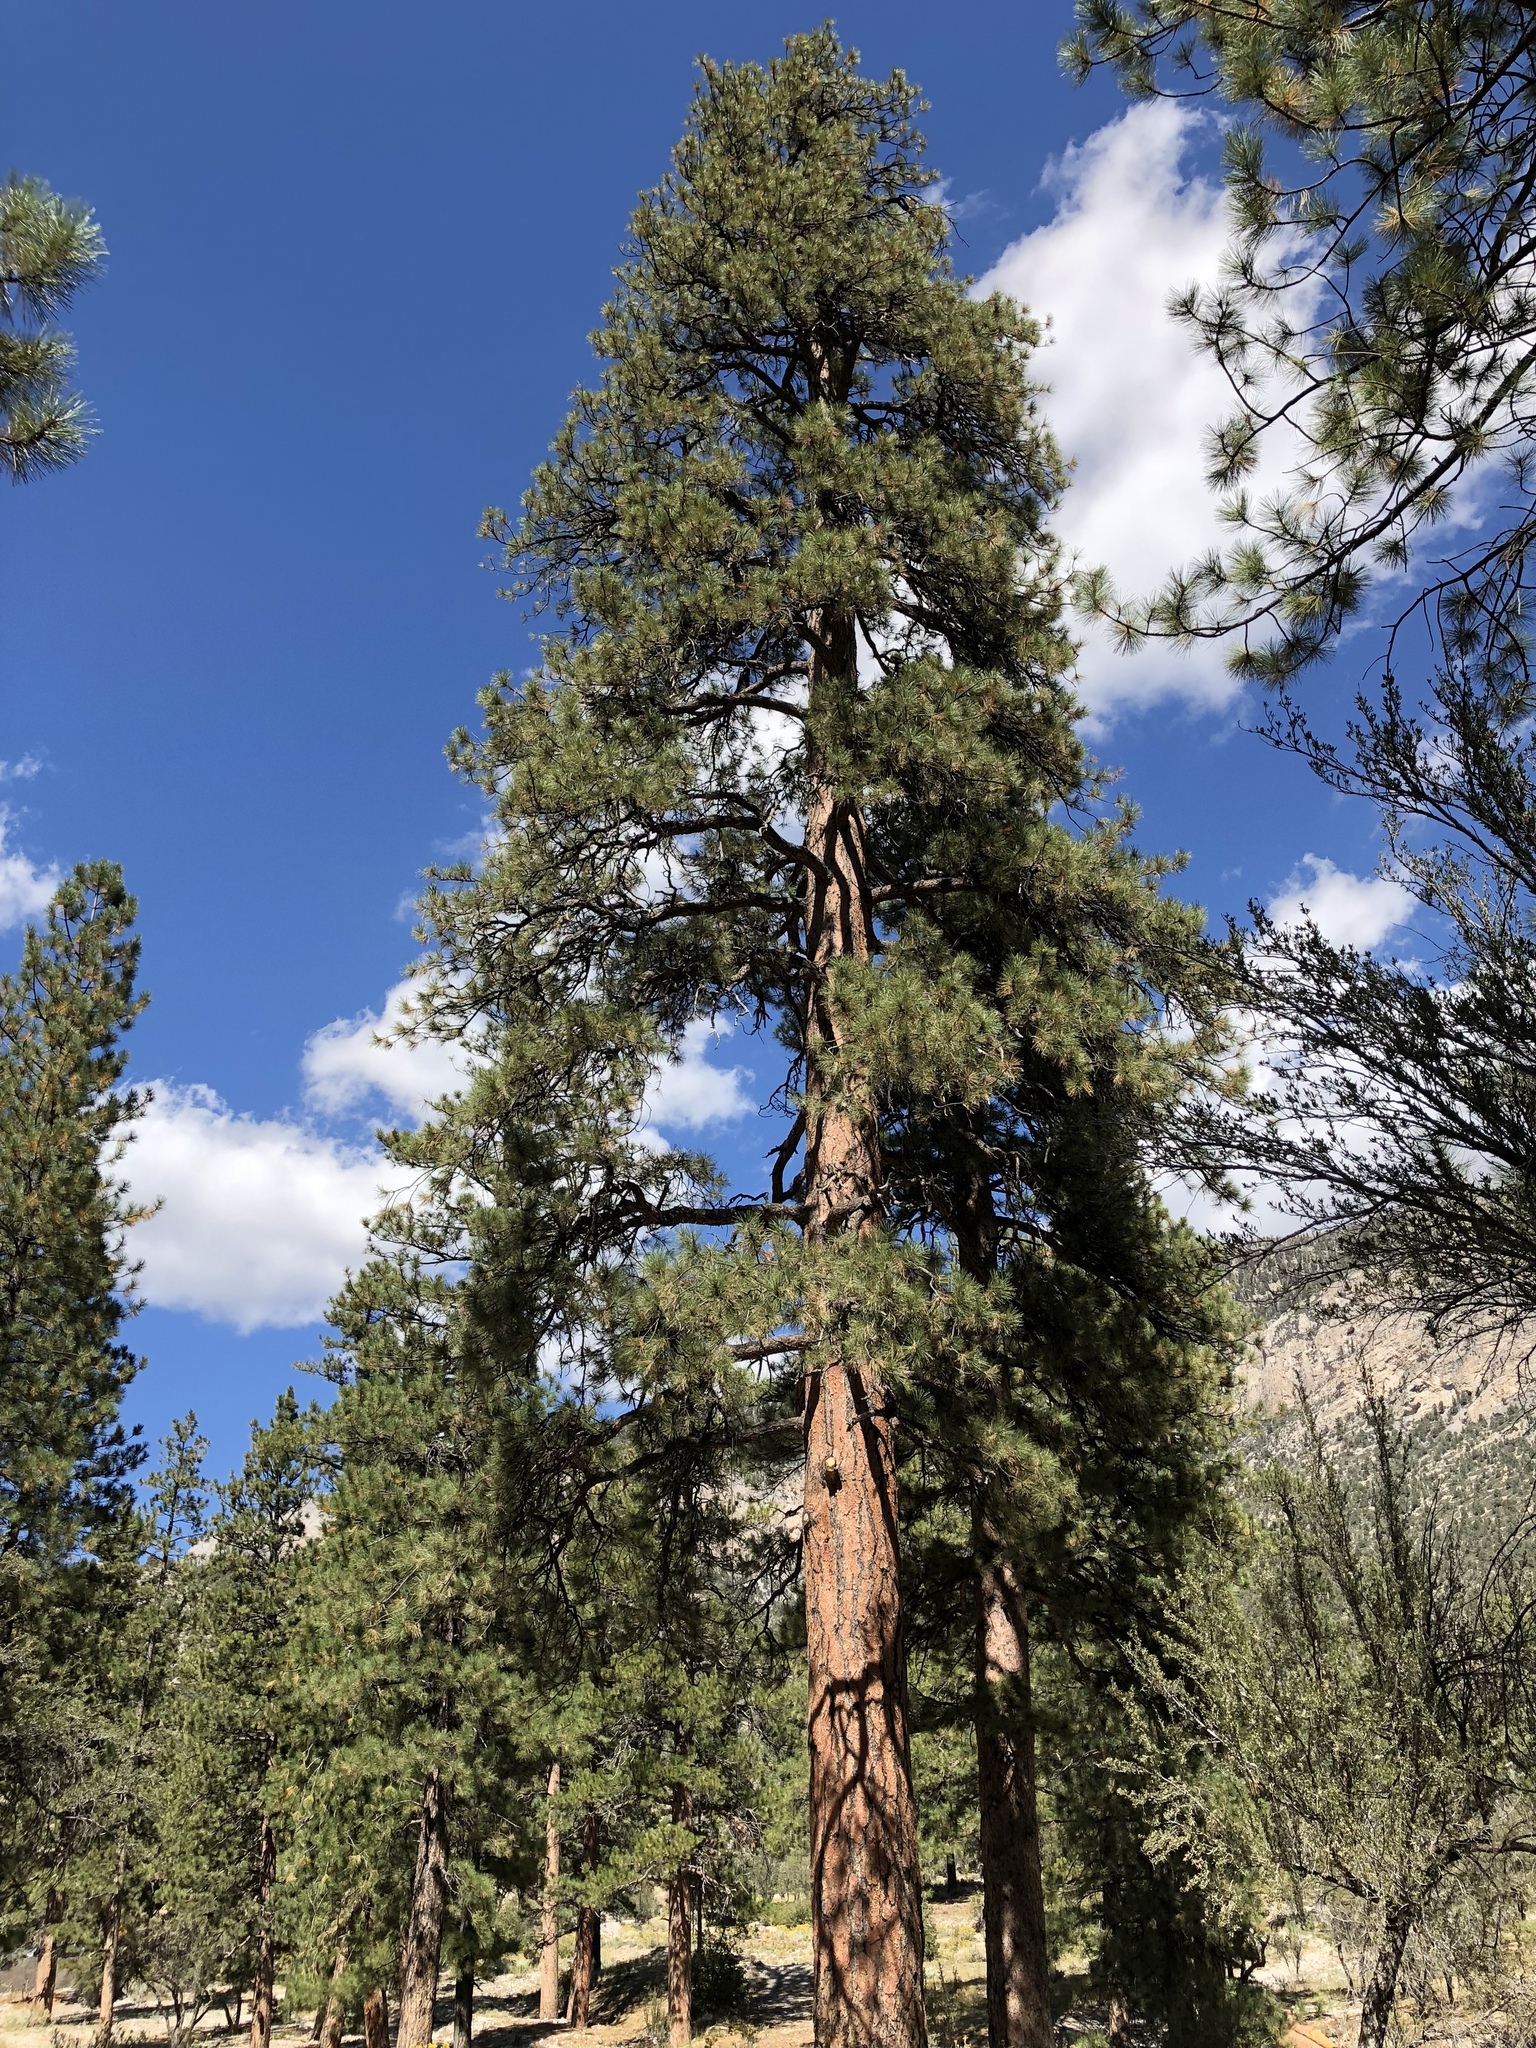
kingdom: Plantae
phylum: Tracheophyta
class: Pinopsida
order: Pinales
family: Pinaceae
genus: Pinus
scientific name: Pinus ponderosa
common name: Western yellow-pine
